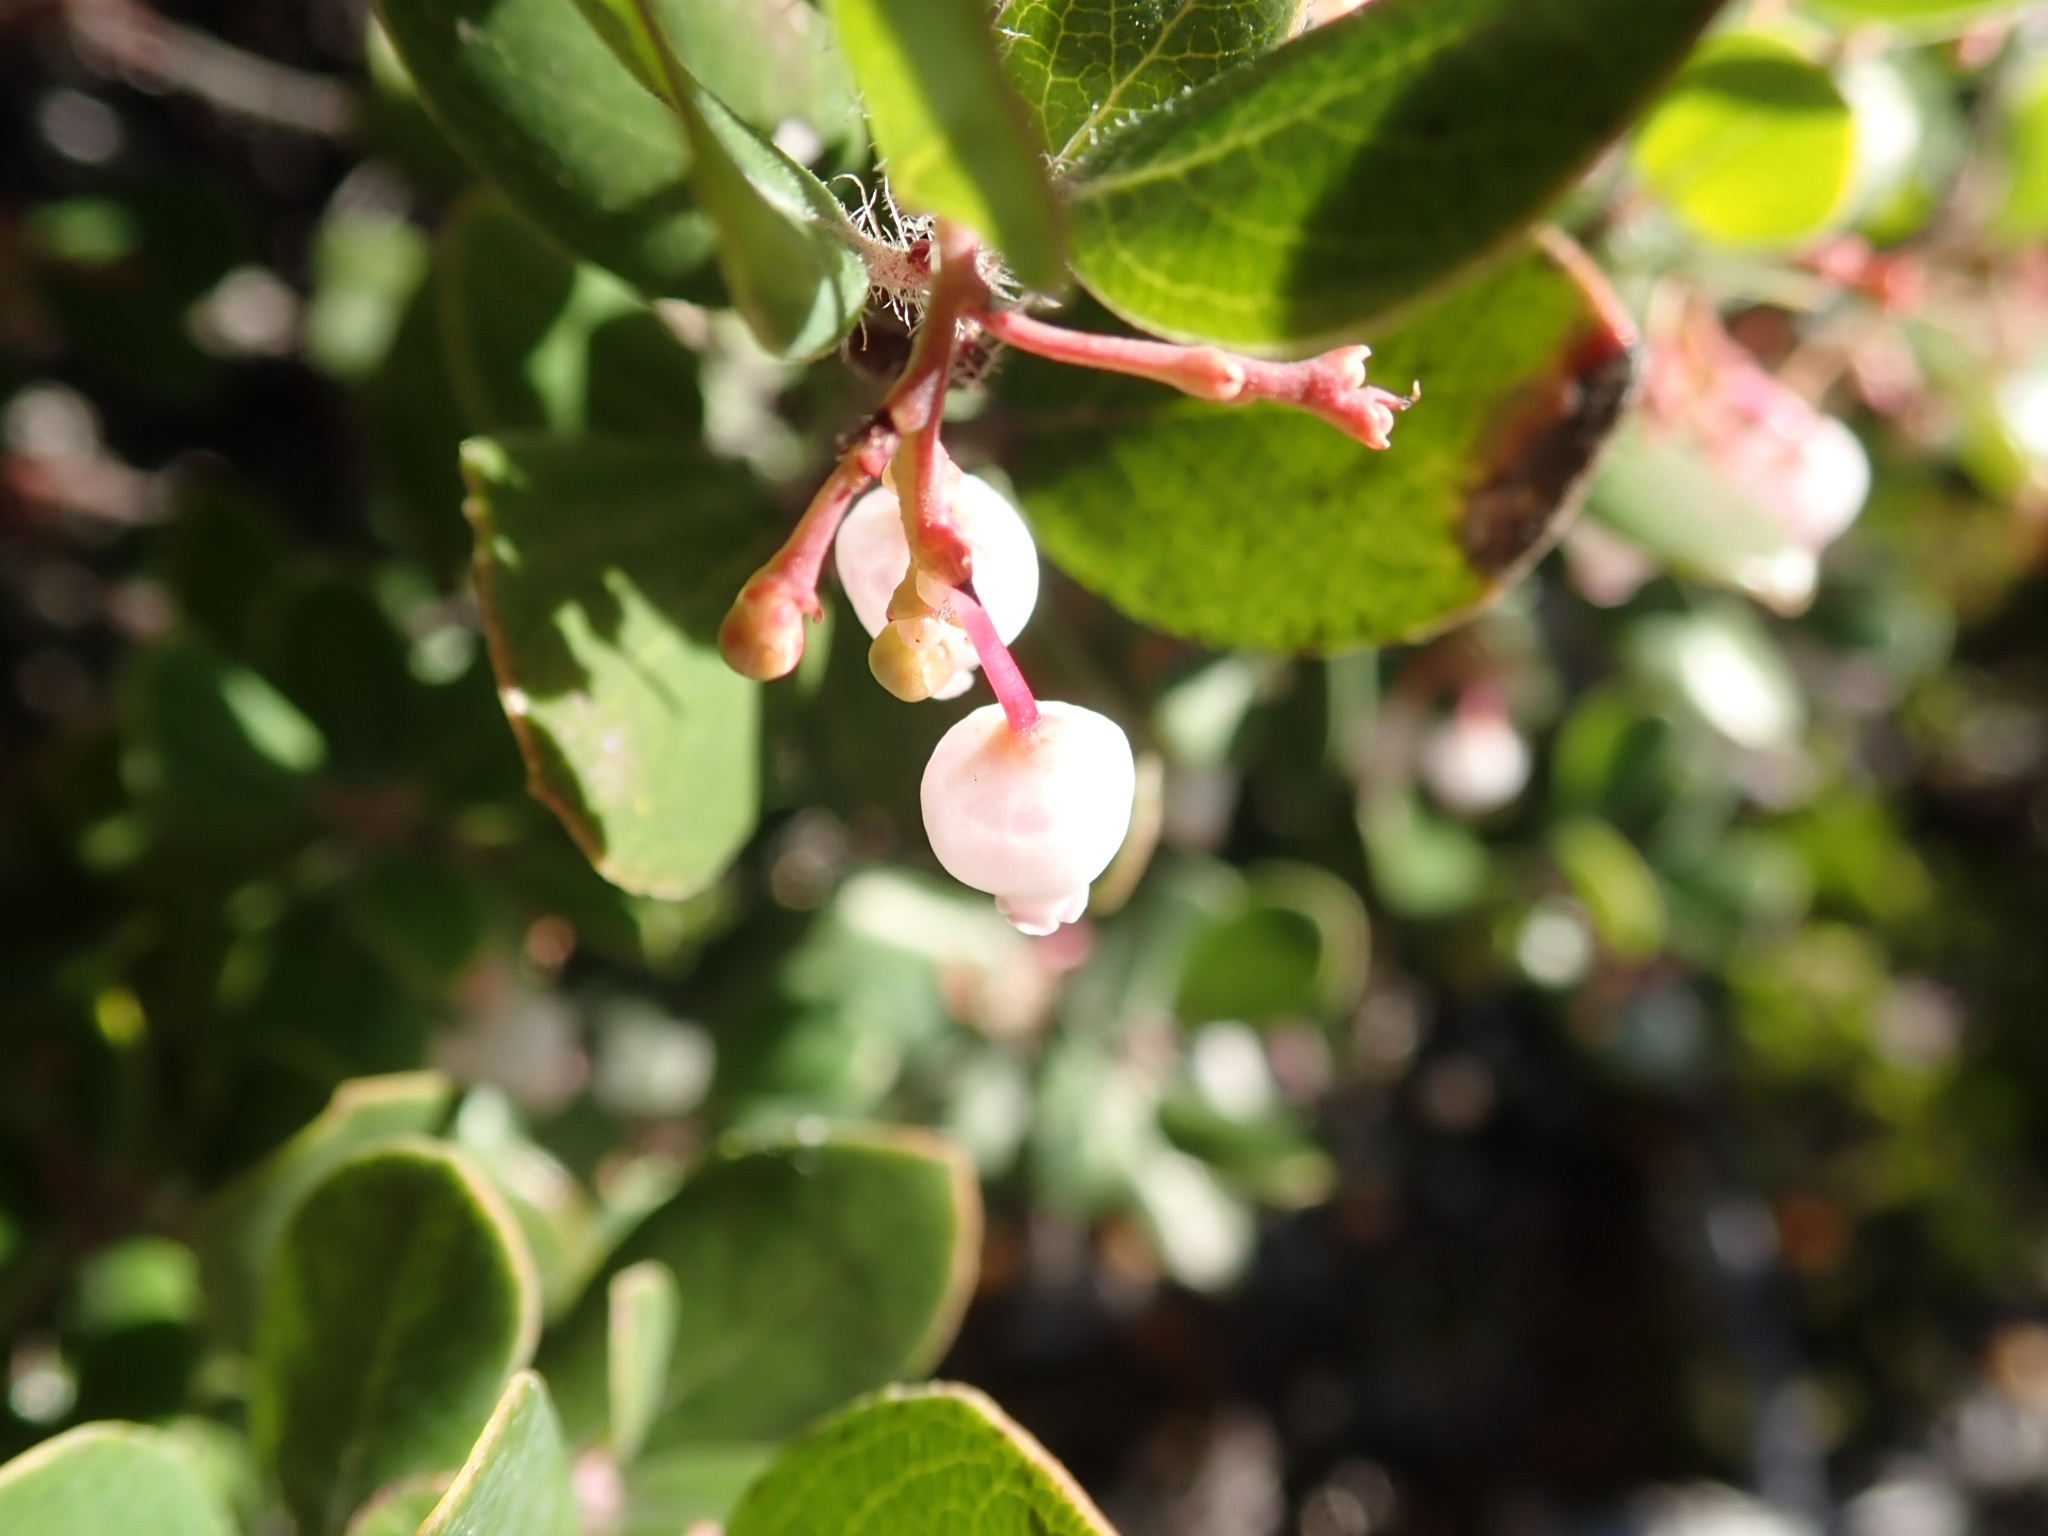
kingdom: Plantae
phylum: Tracheophyta
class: Magnoliopsida
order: Ericales
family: Ericaceae
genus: Arctostaphylos
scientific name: Arctostaphylos nummularia
